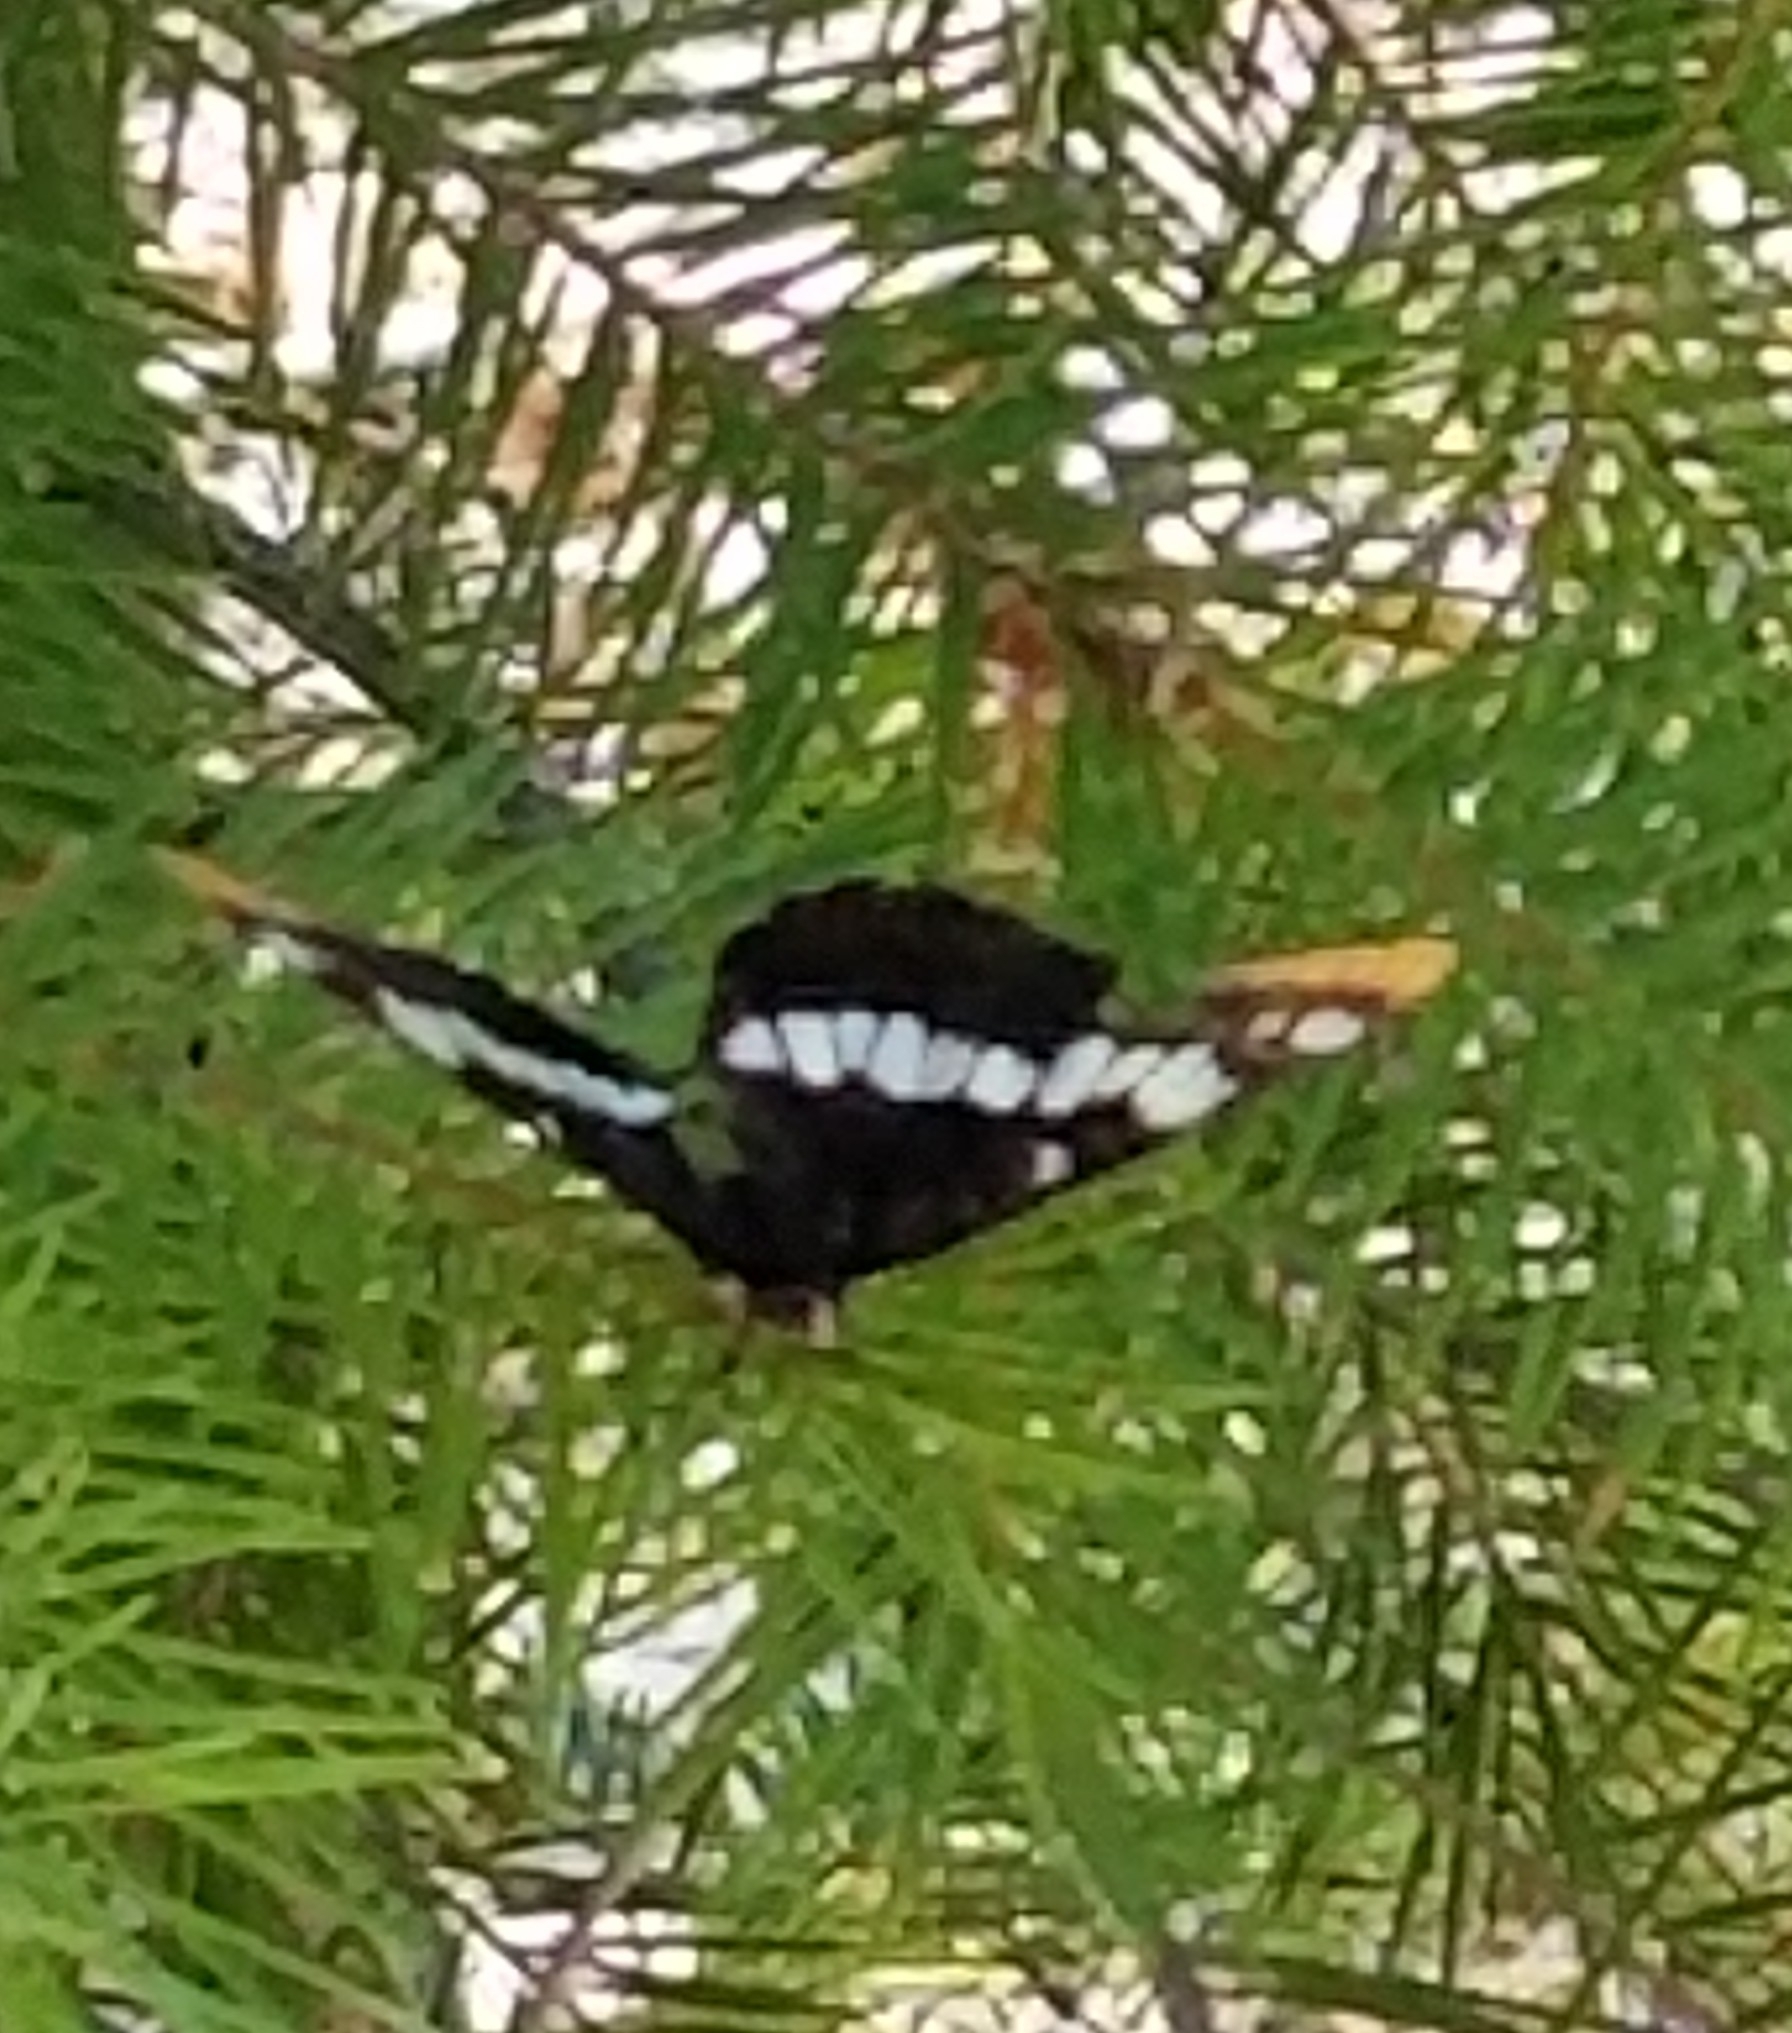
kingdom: Animalia
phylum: Arthropoda
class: Insecta
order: Lepidoptera
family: Nymphalidae
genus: Limenitis
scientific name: Limenitis lorquini
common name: Lorquin's admiral
